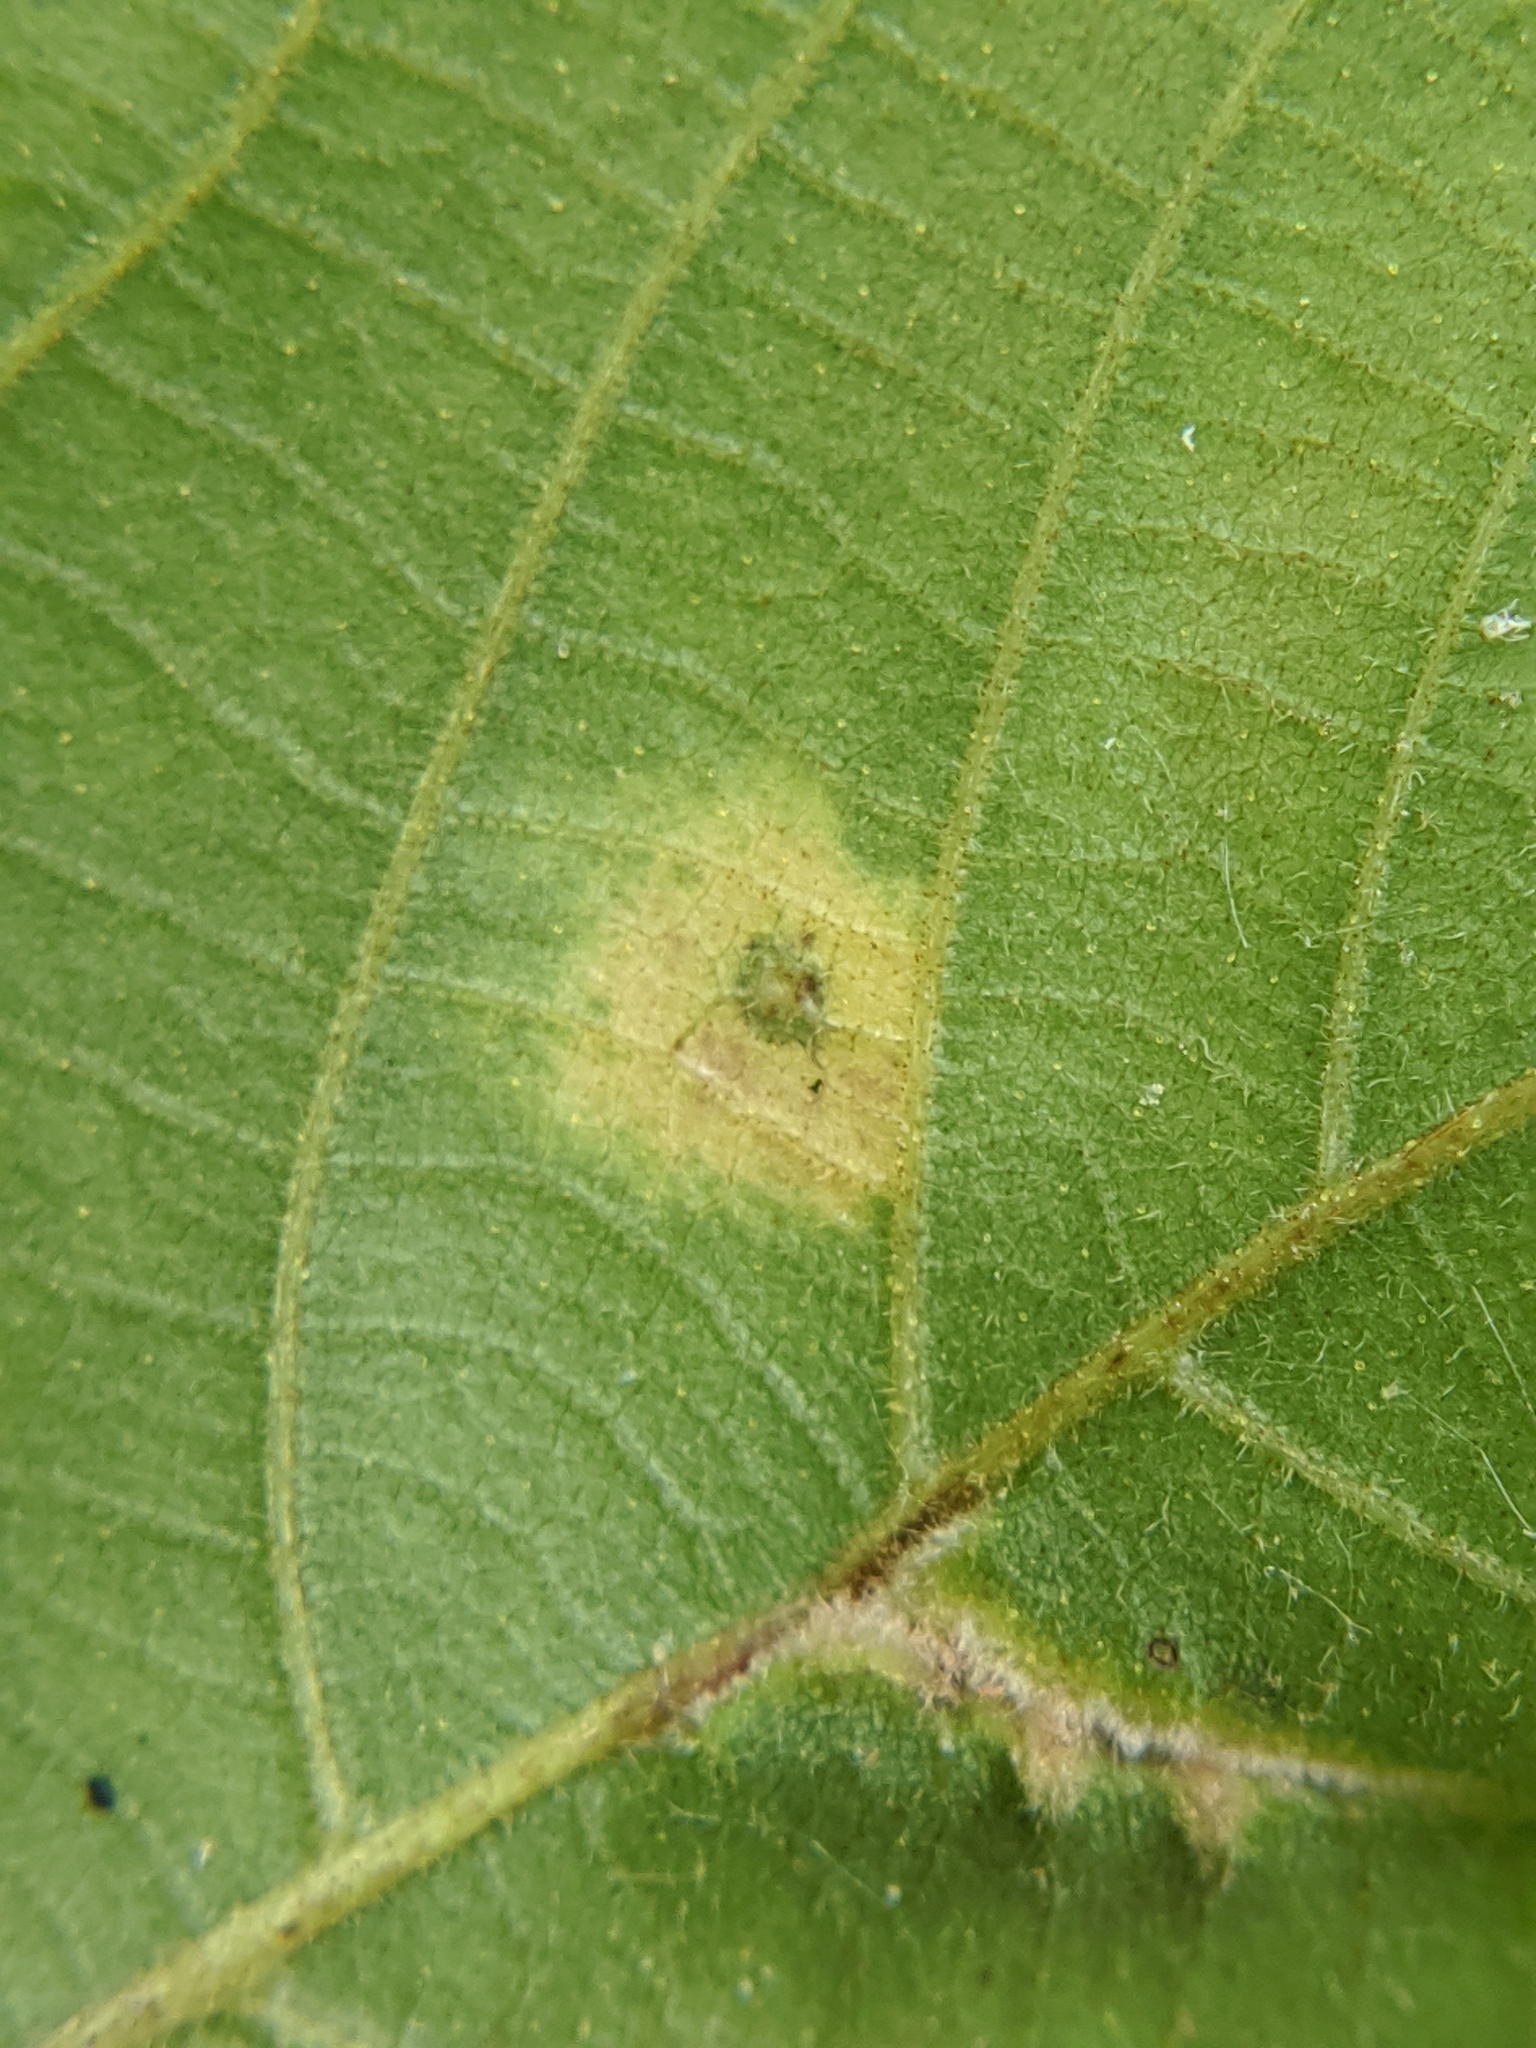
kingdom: Animalia
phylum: Arthropoda
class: Insecta
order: Diptera
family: Cecidomyiidae
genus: Caryomyia
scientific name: Caryomyia urnula
